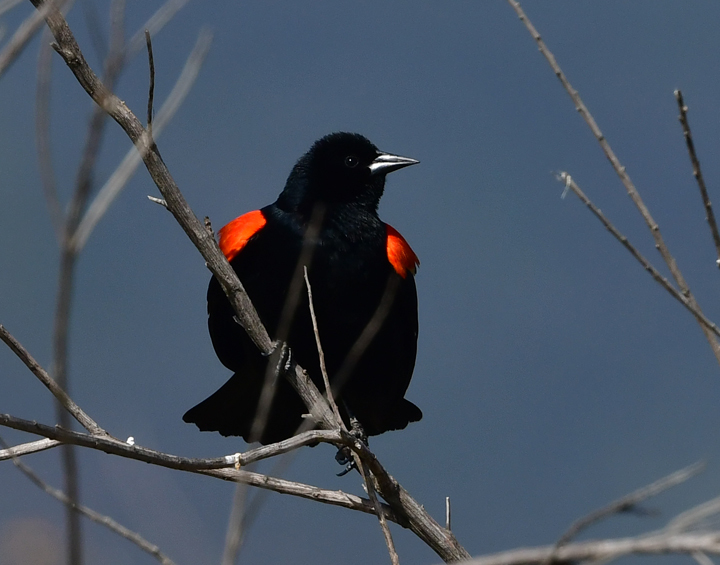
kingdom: Animalia
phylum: Chordata
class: Aves
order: Passeriformes
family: Icteridae
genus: Agelaius
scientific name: Agelaius phoeniceus
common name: Red-winged blackbird
